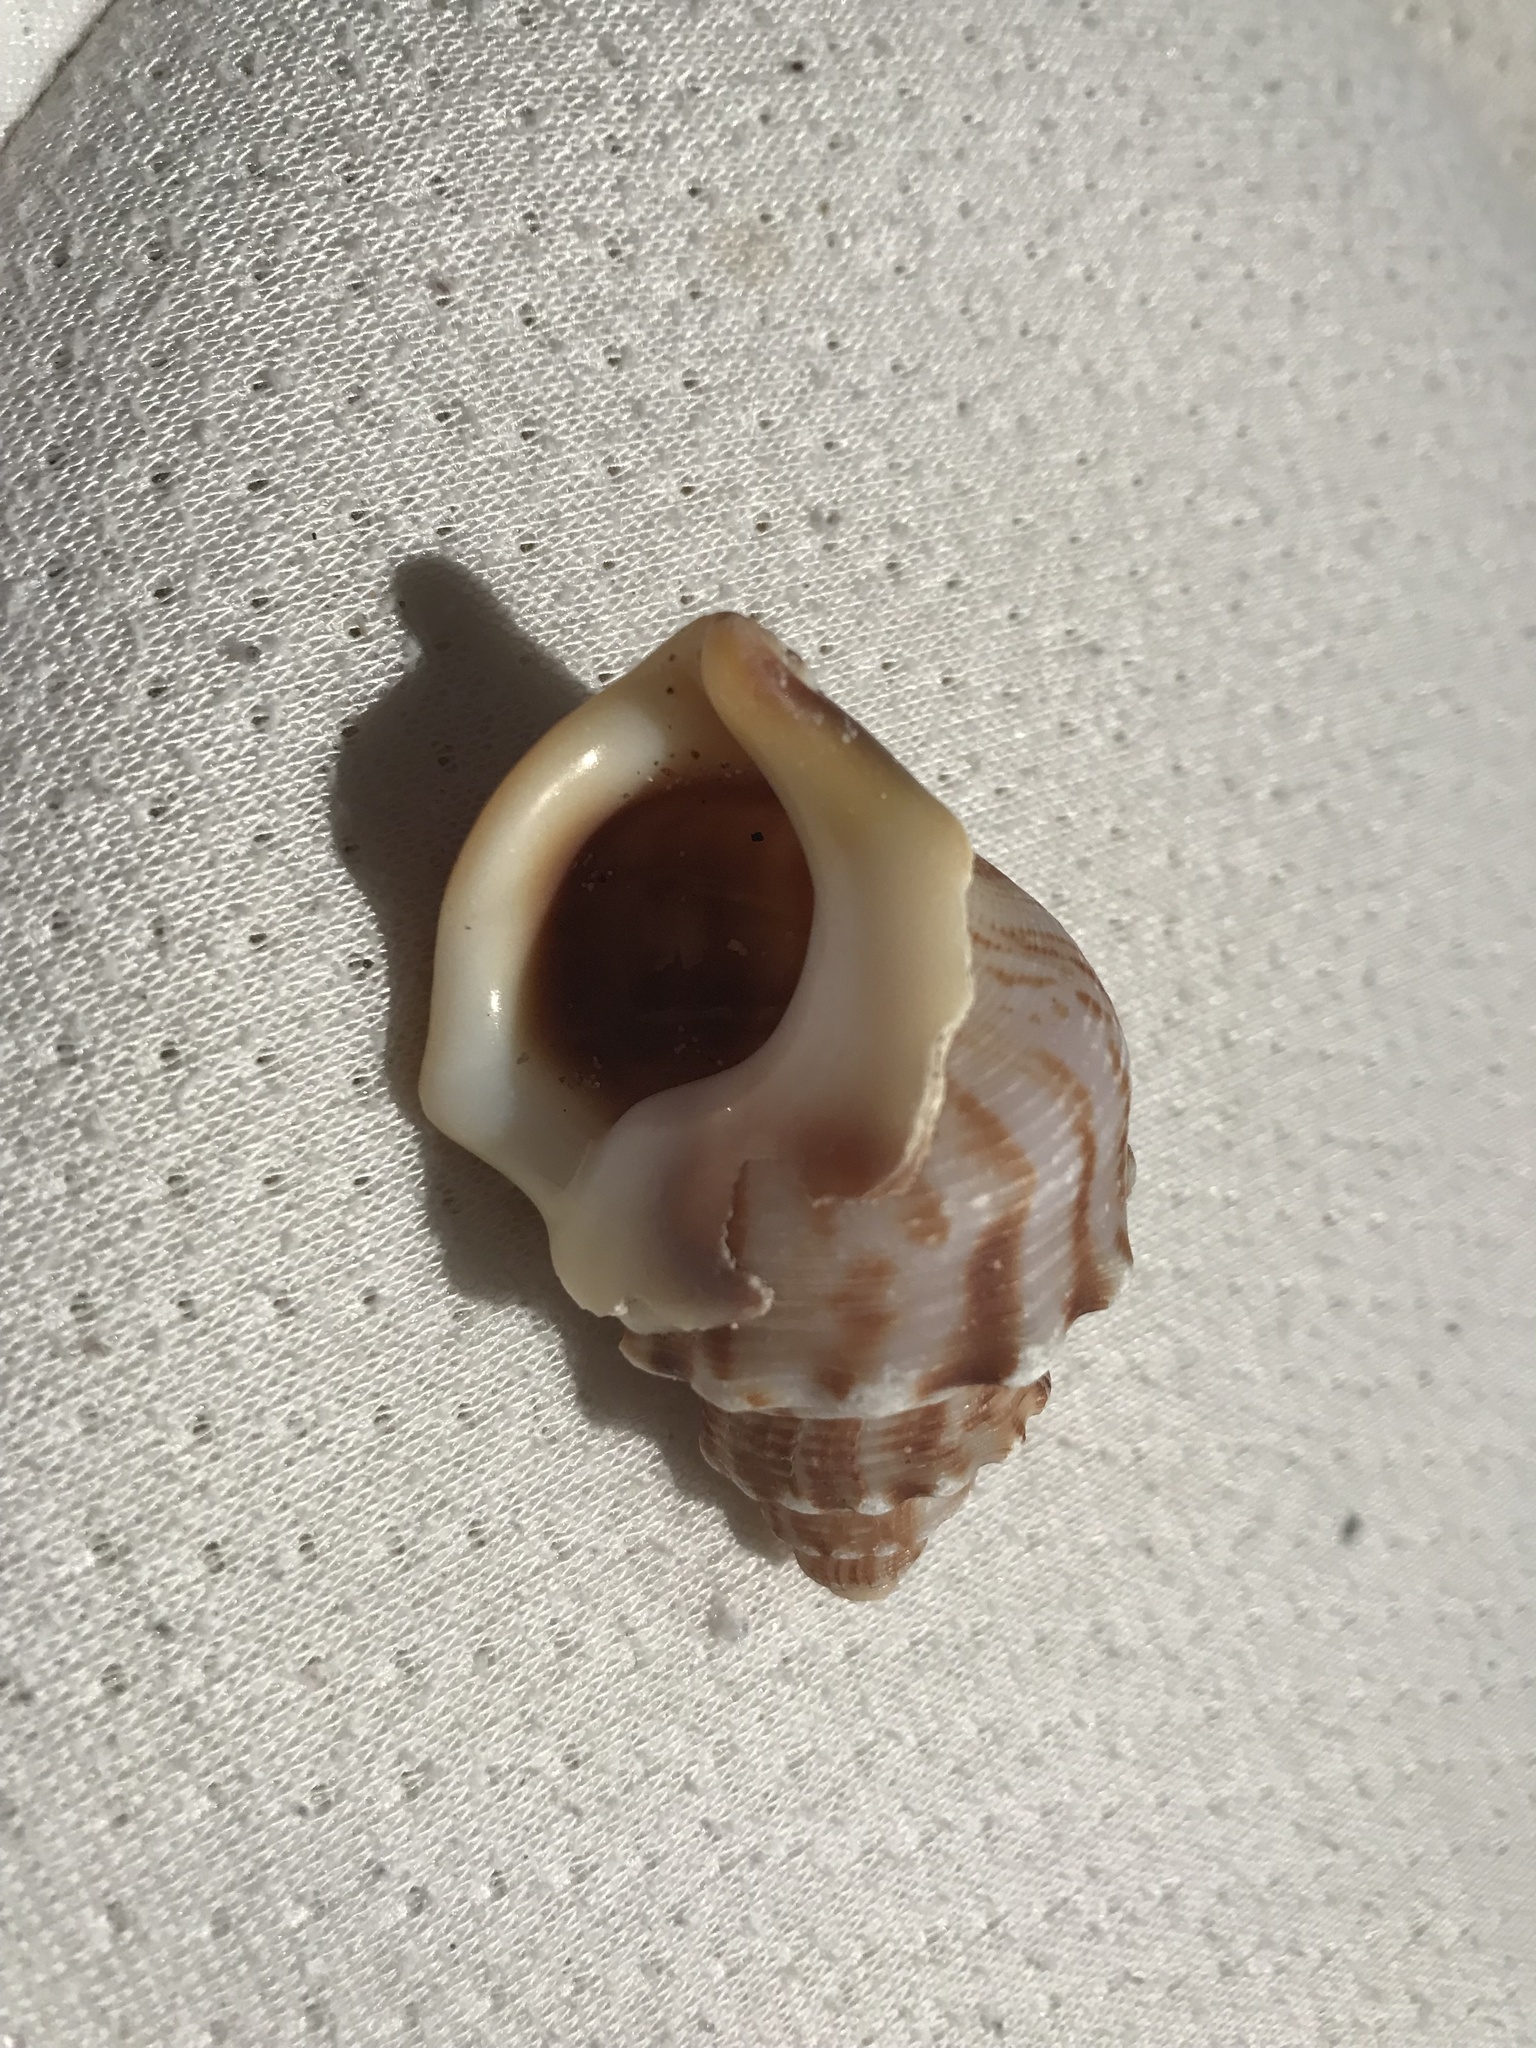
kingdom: Animalia
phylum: Mollusca
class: Gastropoda
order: Littorinimorpha
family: Struthiolariidae
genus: Struthiolaria
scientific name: Struthiolaria papulosa
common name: Large ostrich foot
